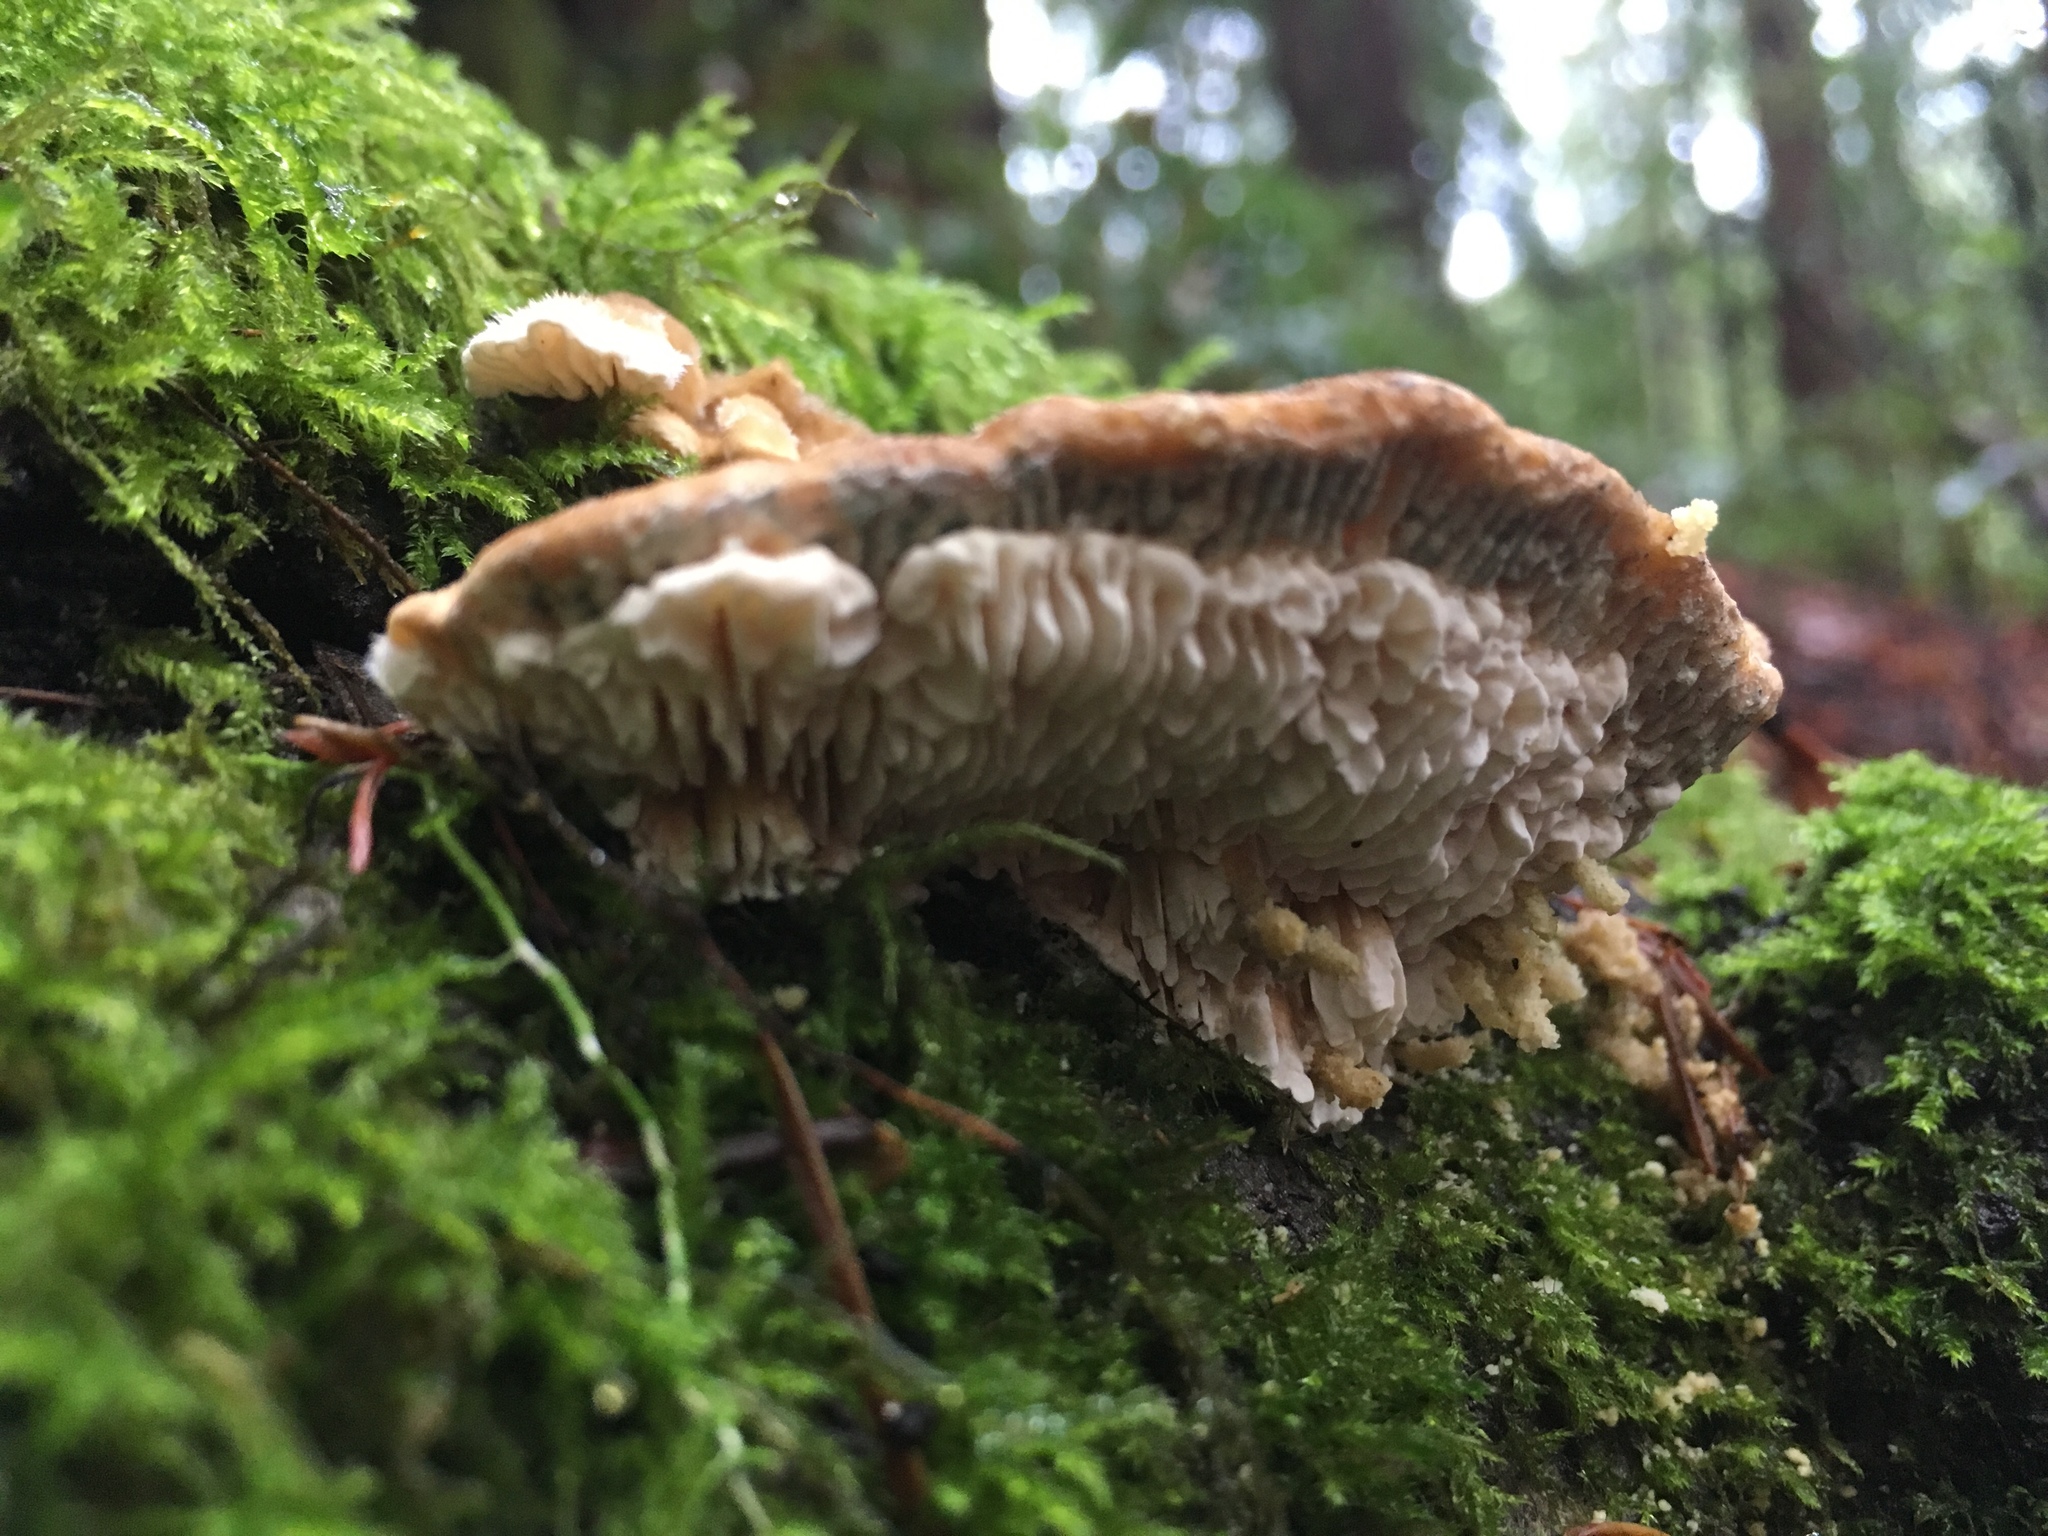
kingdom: Fungi
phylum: Basidiomycota
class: Agaricomycetes
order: Polyporales
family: Polyporaceae
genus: Lenzites
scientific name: Lenzites betulinus
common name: Birch mazegill
